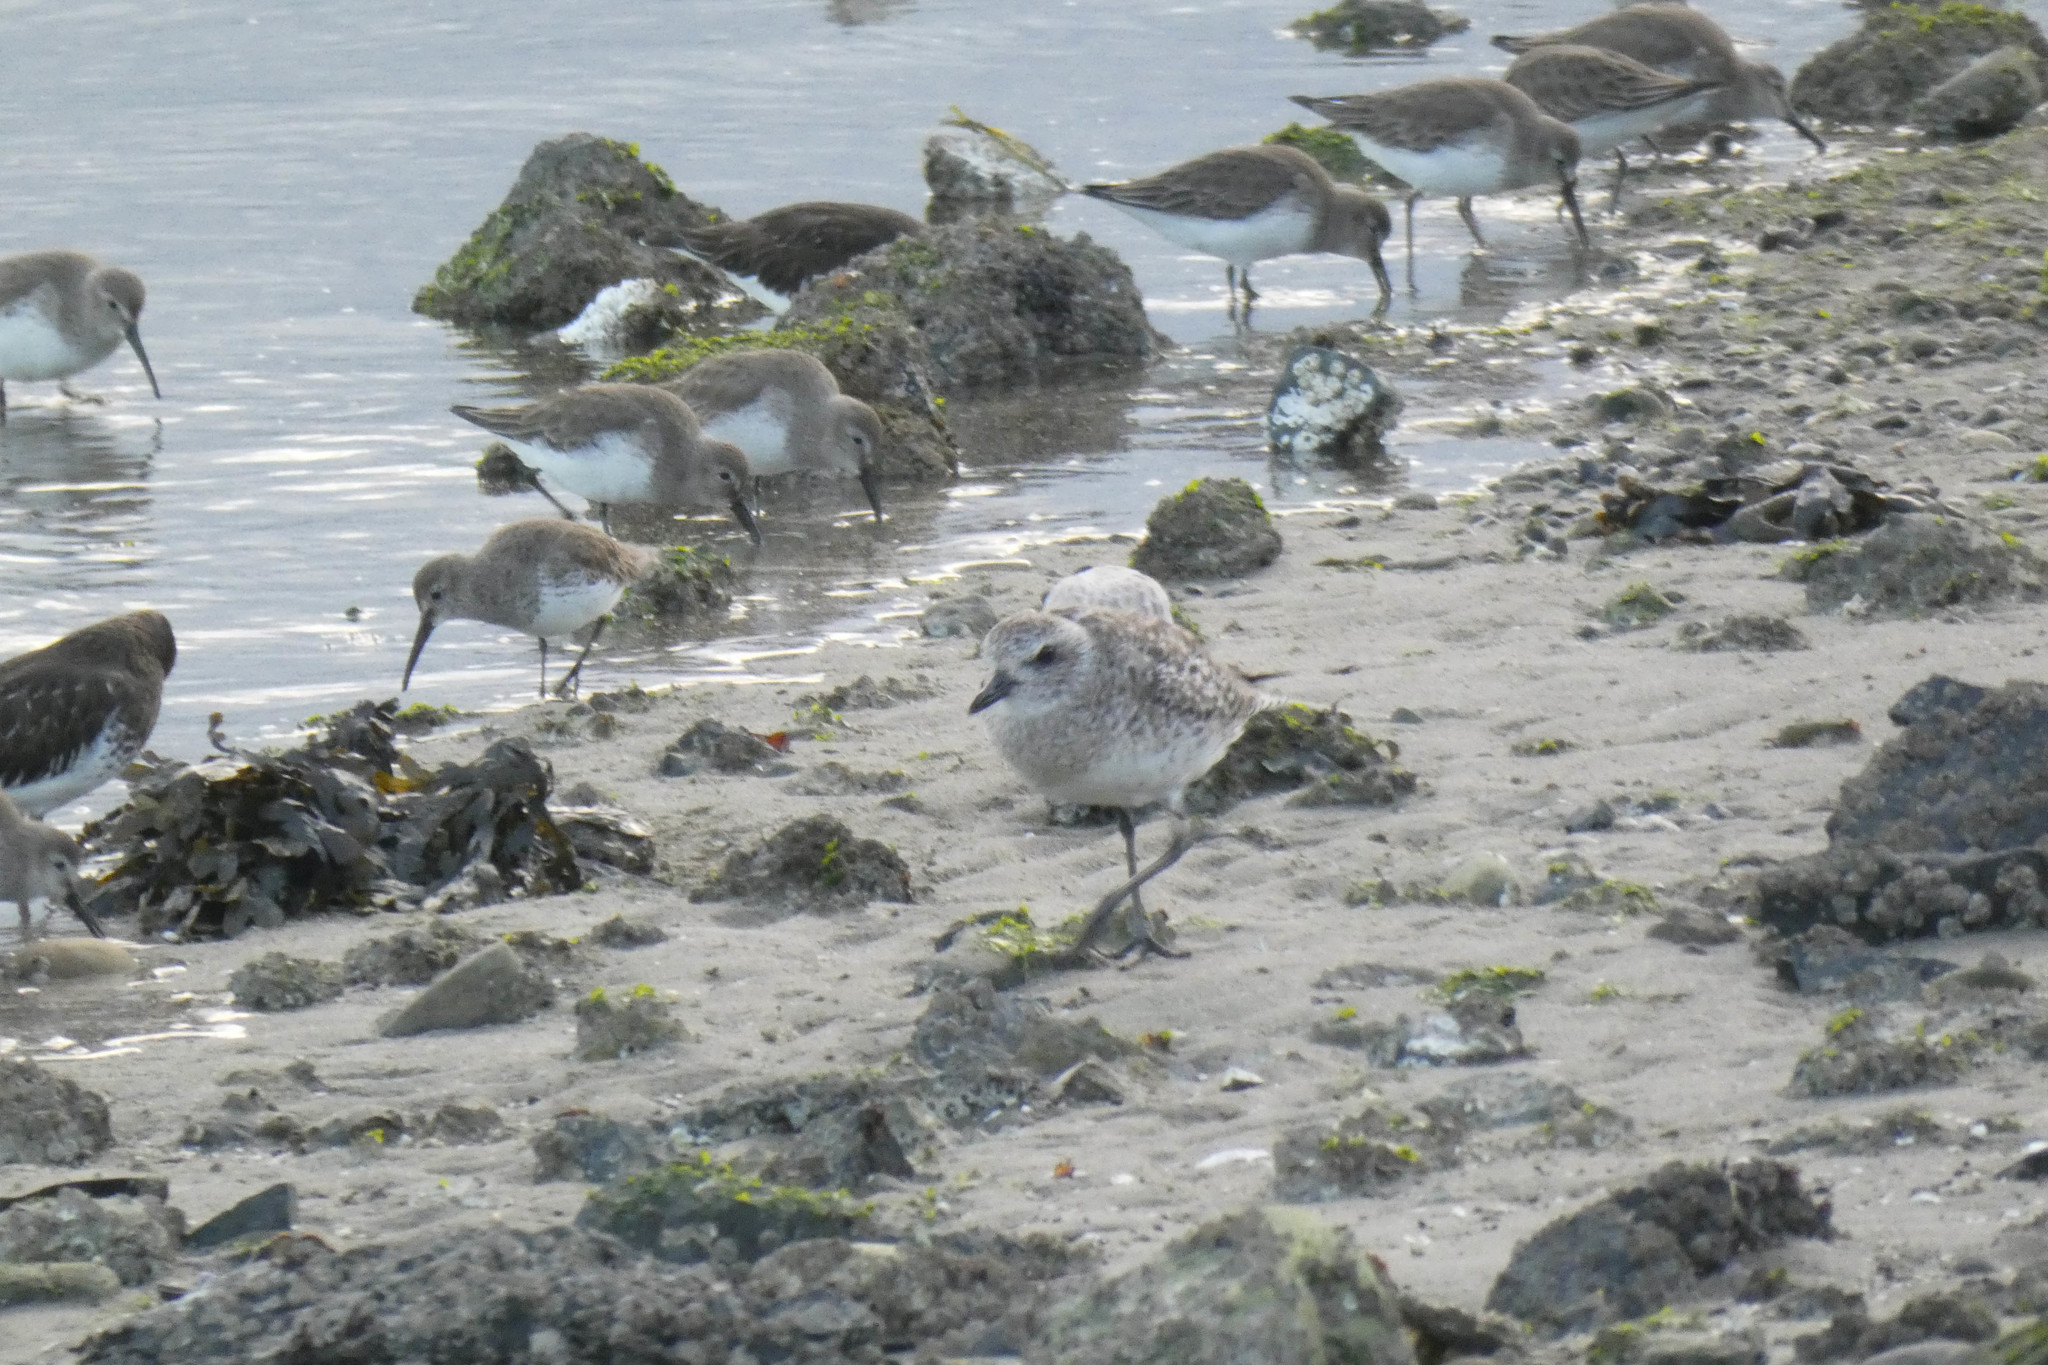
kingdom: Animalia
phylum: Chordata
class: Aves
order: Charadriiformes
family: Charadriidae
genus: Pluvialis
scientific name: Pluvialis squatarola
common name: Grey plover
